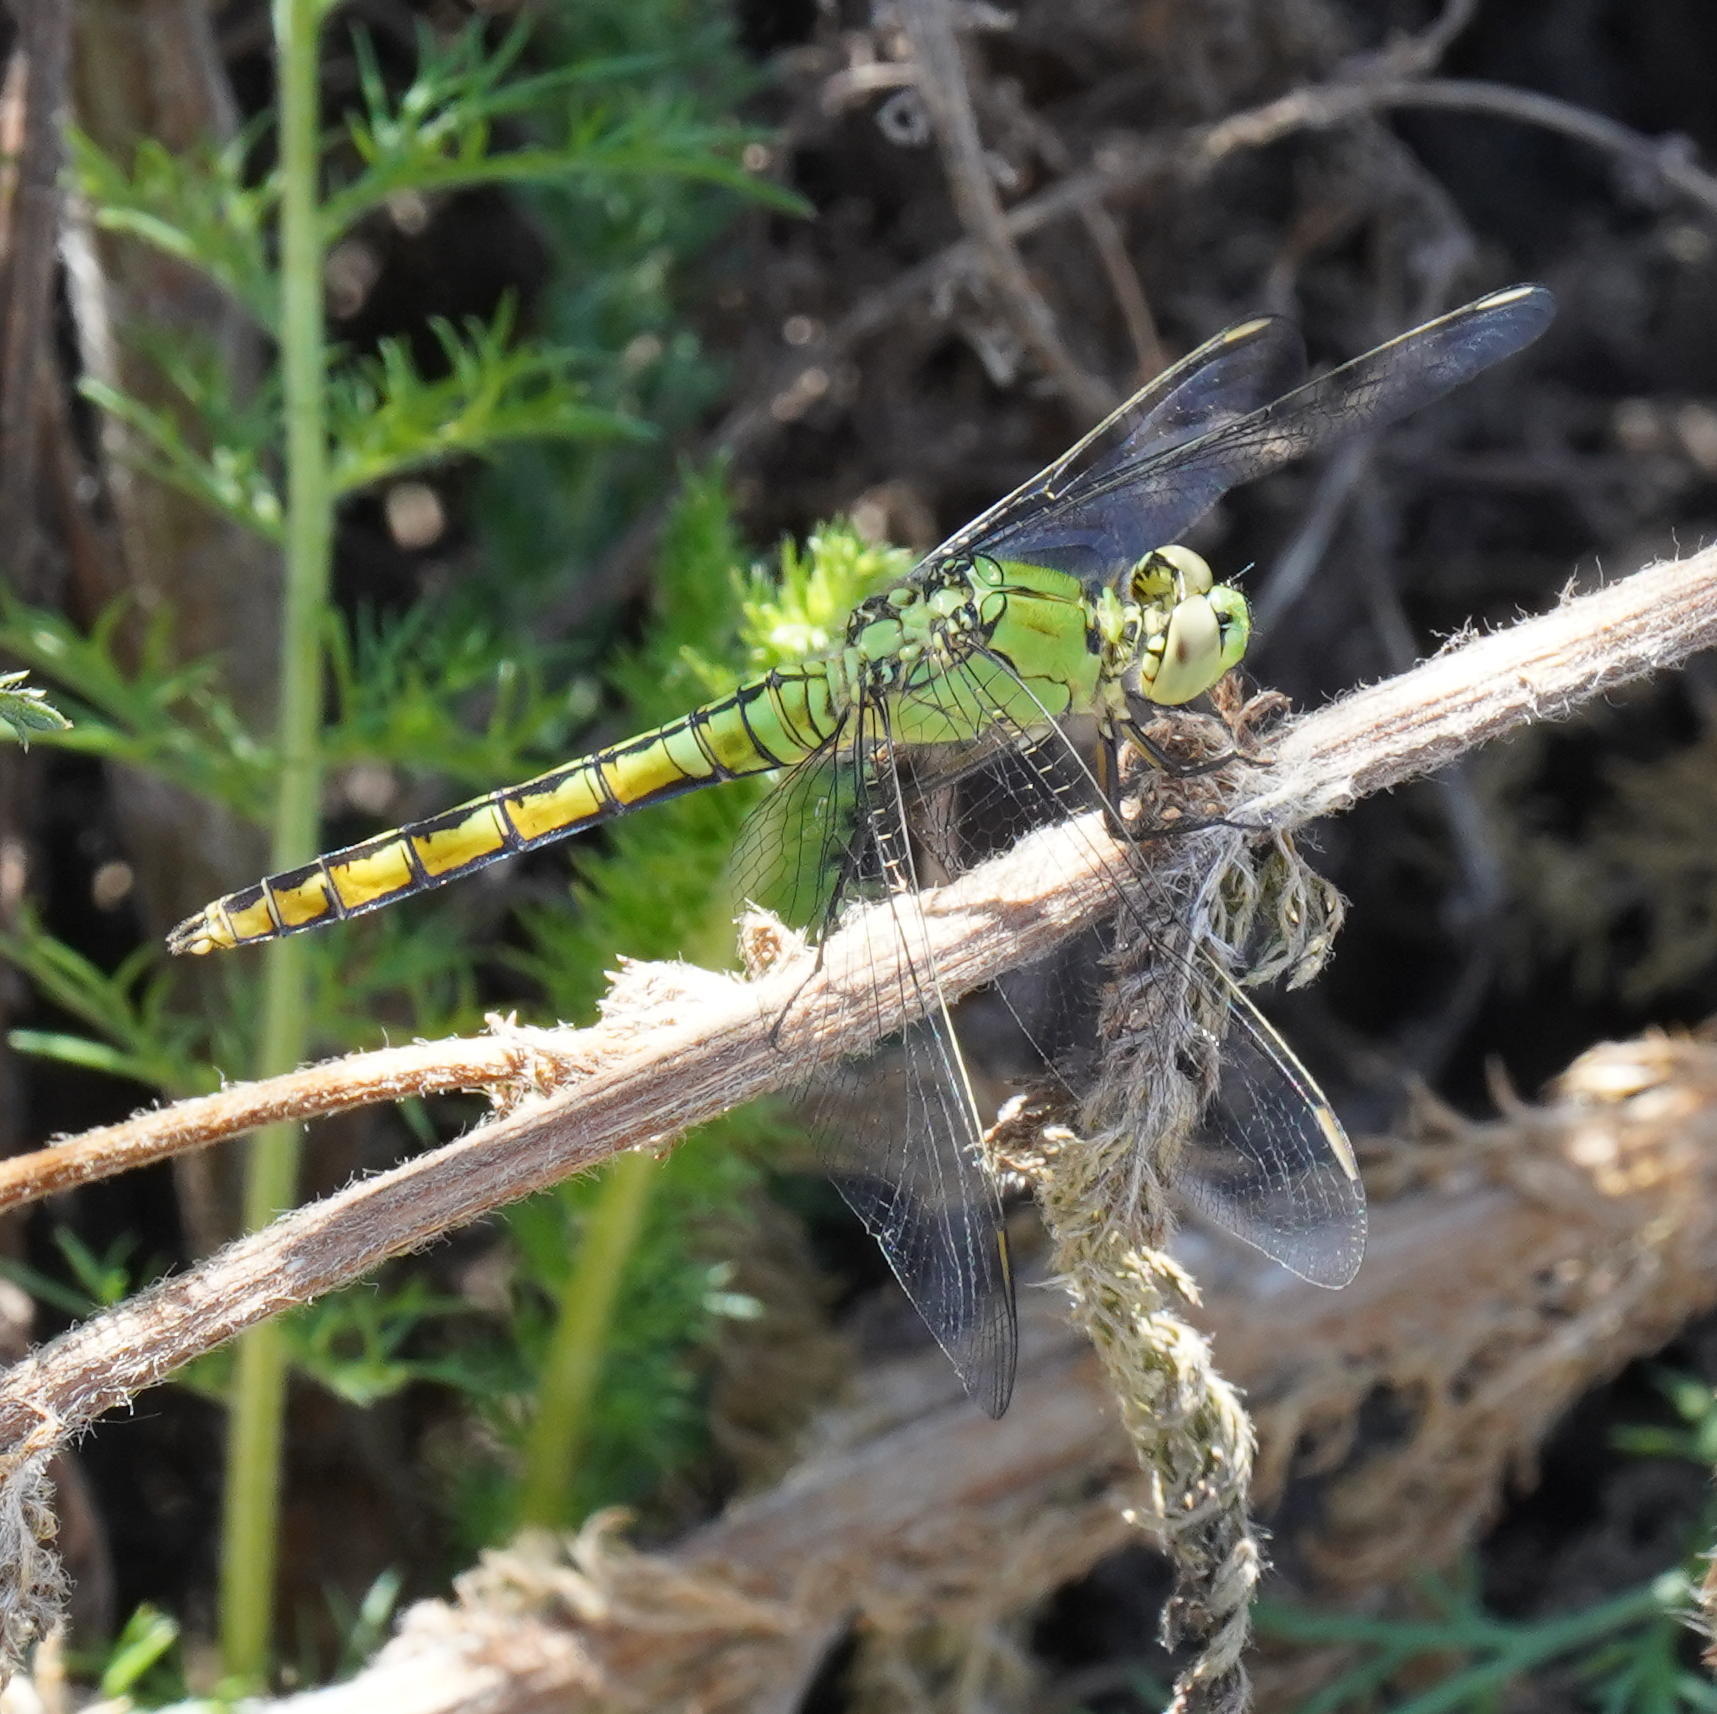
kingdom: Animalia
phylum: Arthropoda
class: Insecta
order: Odonata
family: Libellulidae
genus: Erythemis
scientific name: Erythemis collocata
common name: Western pondhawk
